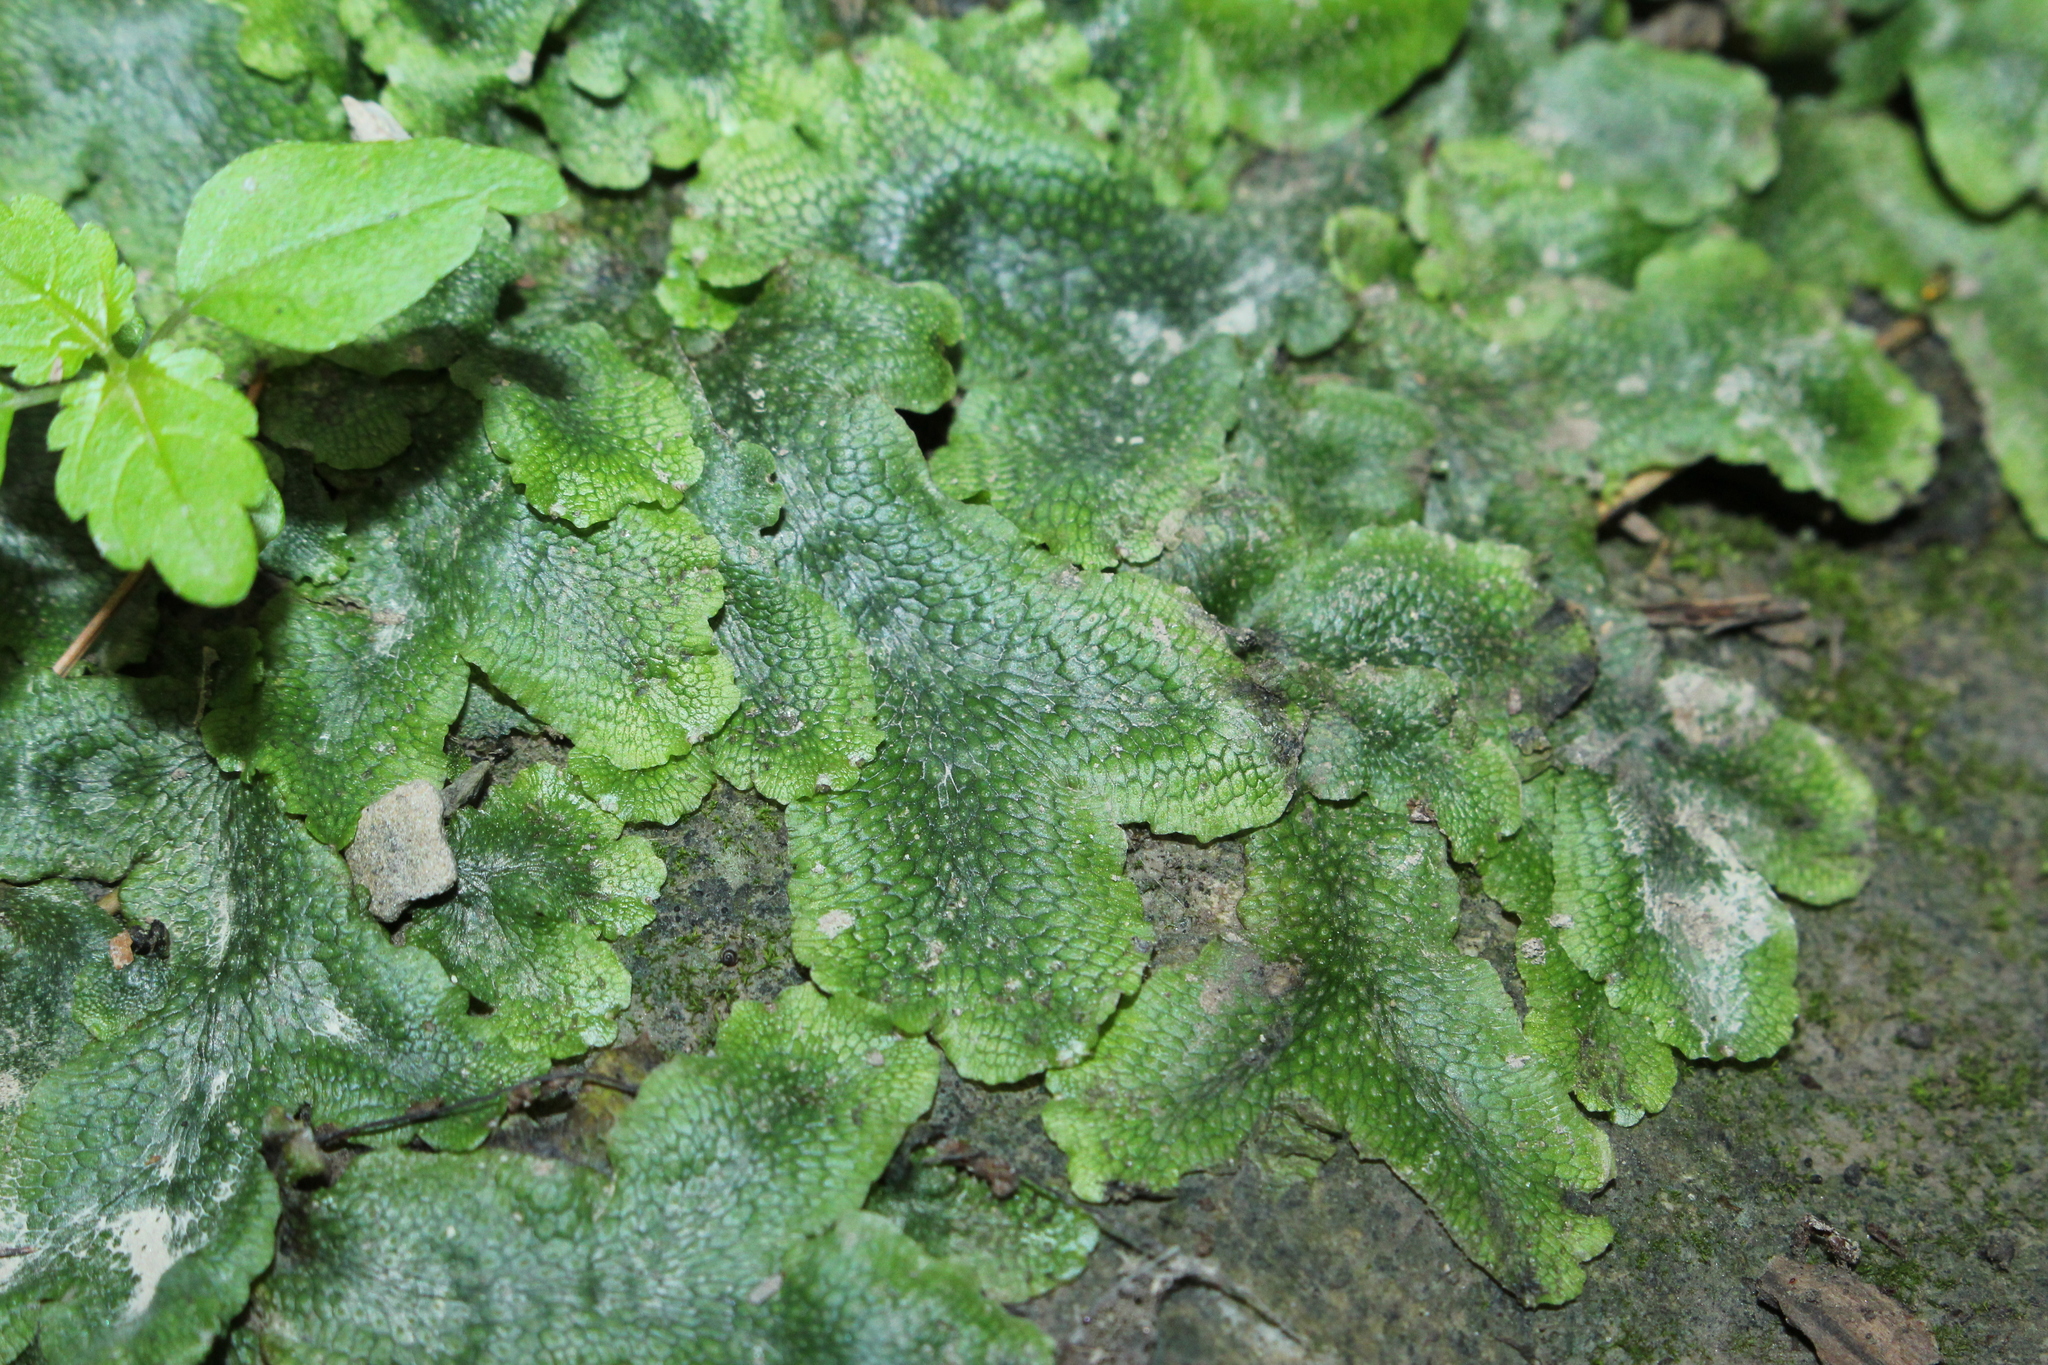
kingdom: Plantae
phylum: Marchantiophyta
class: Marchantiopsida
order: Marchantiales
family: Conocephalaceae
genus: Conocephalum
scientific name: Conocephalum salebrosum
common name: Cat-tongue liverwort
